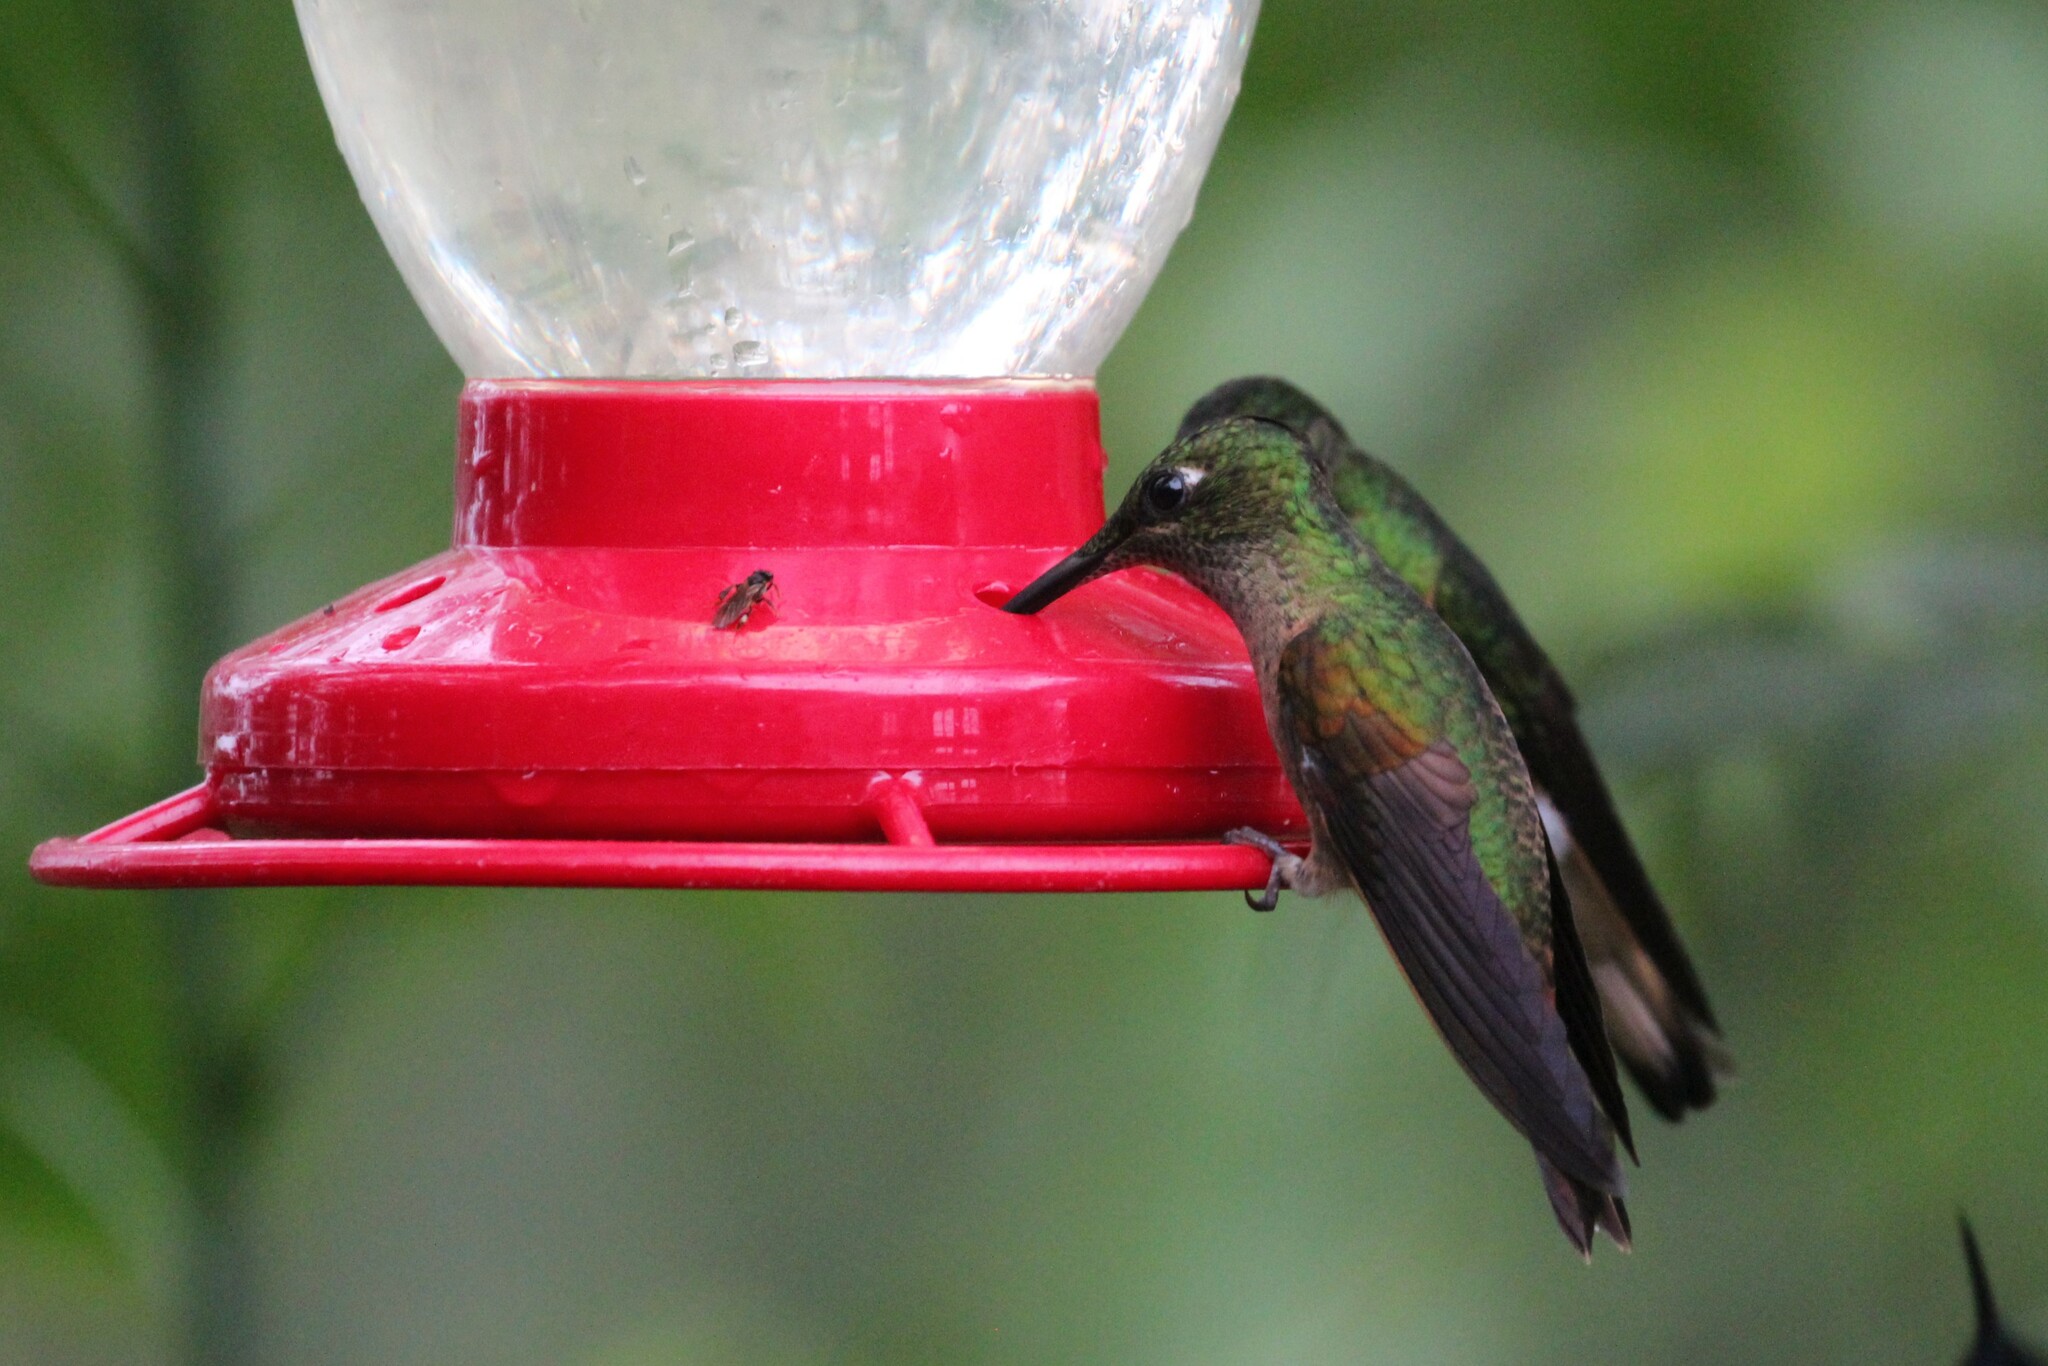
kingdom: Animalia
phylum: Chordata
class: Aves
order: Apodiformes
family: Trochilidae
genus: Heliodoxa
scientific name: Heliodoxa rubinoides
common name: Fawn-breasted brilliant
